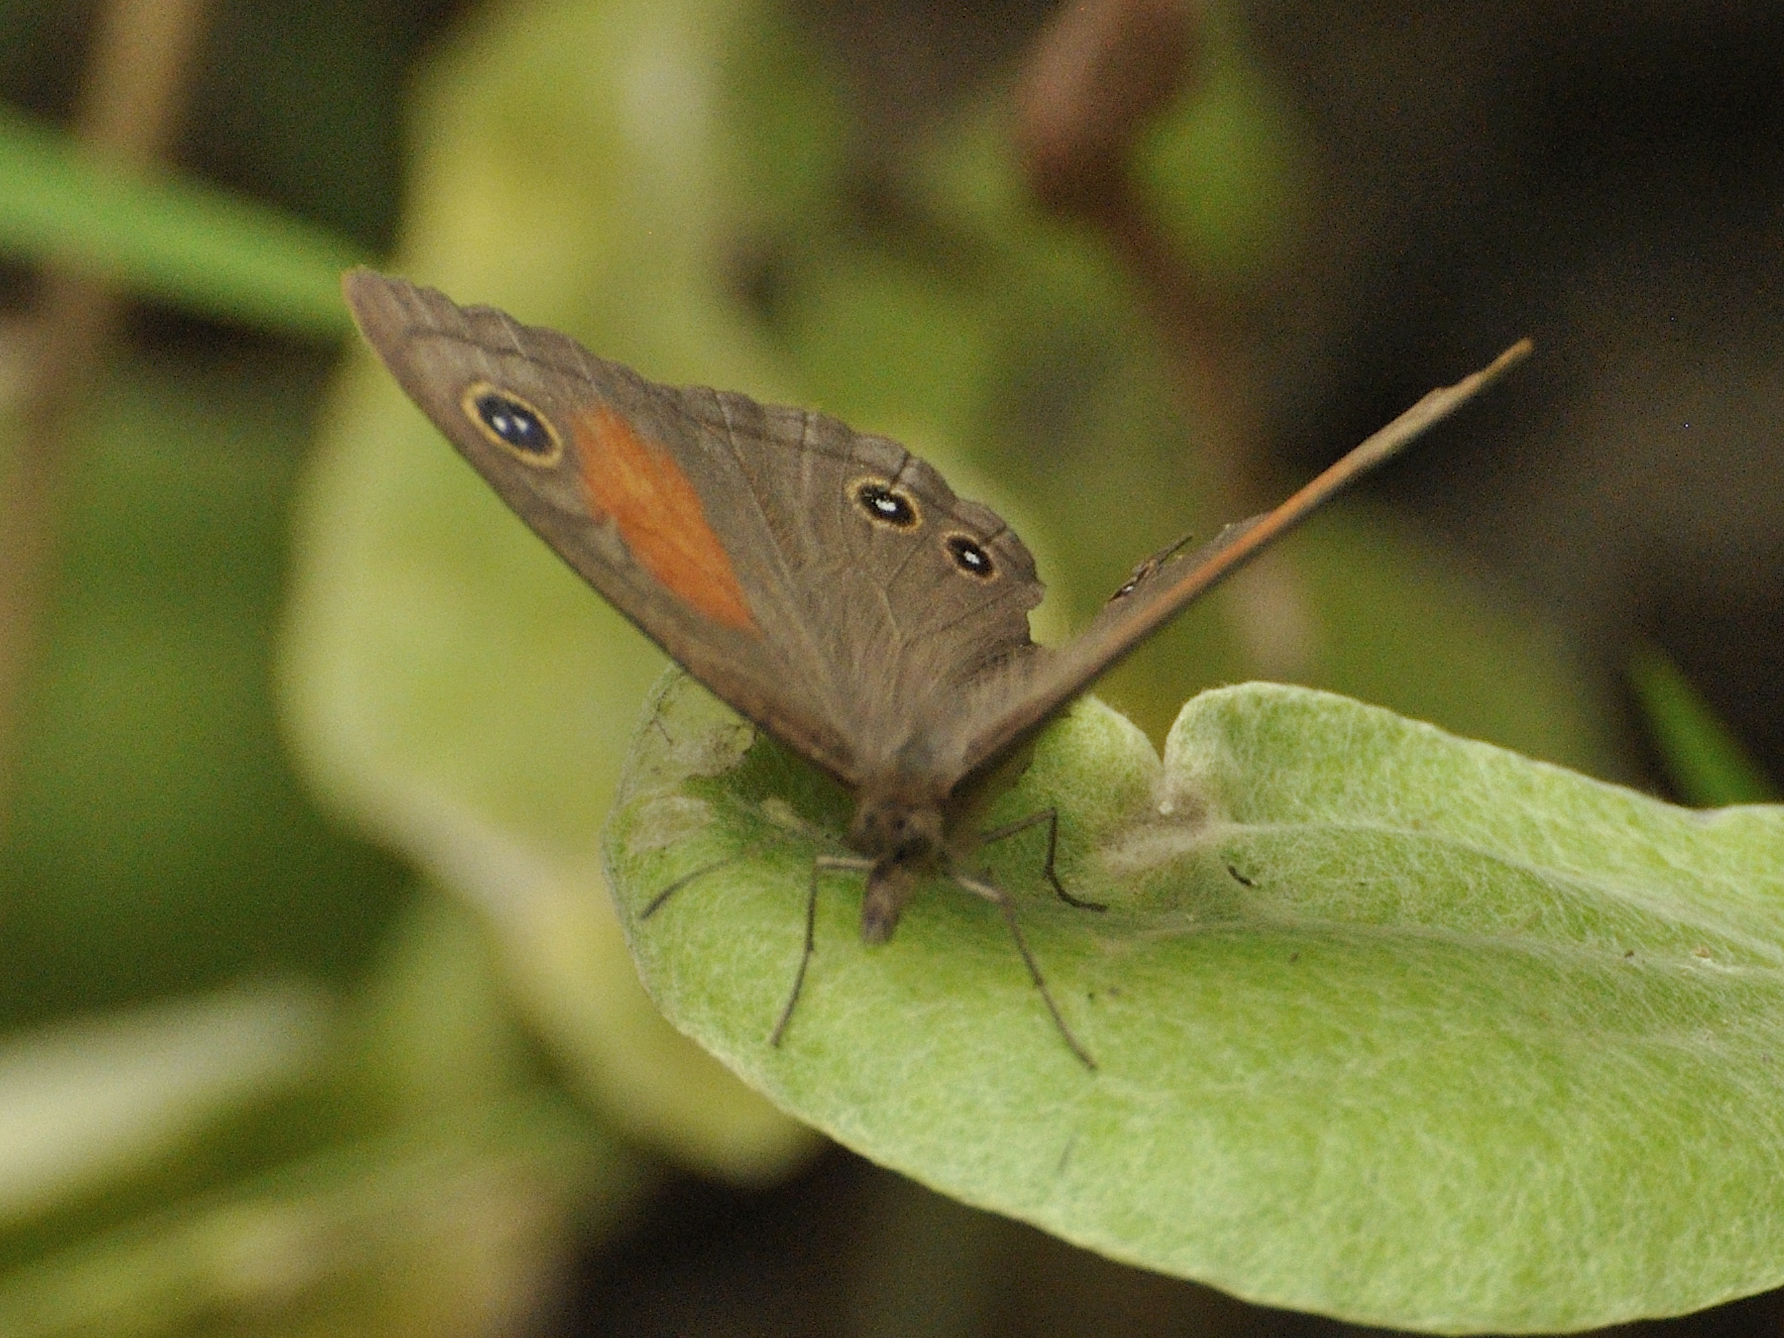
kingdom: Animalia
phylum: Arthropoda
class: Insecta
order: Lepidoptera
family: Nymphalidae
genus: Cassionympha
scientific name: Cassionympha cassius
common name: Rainforest brown
